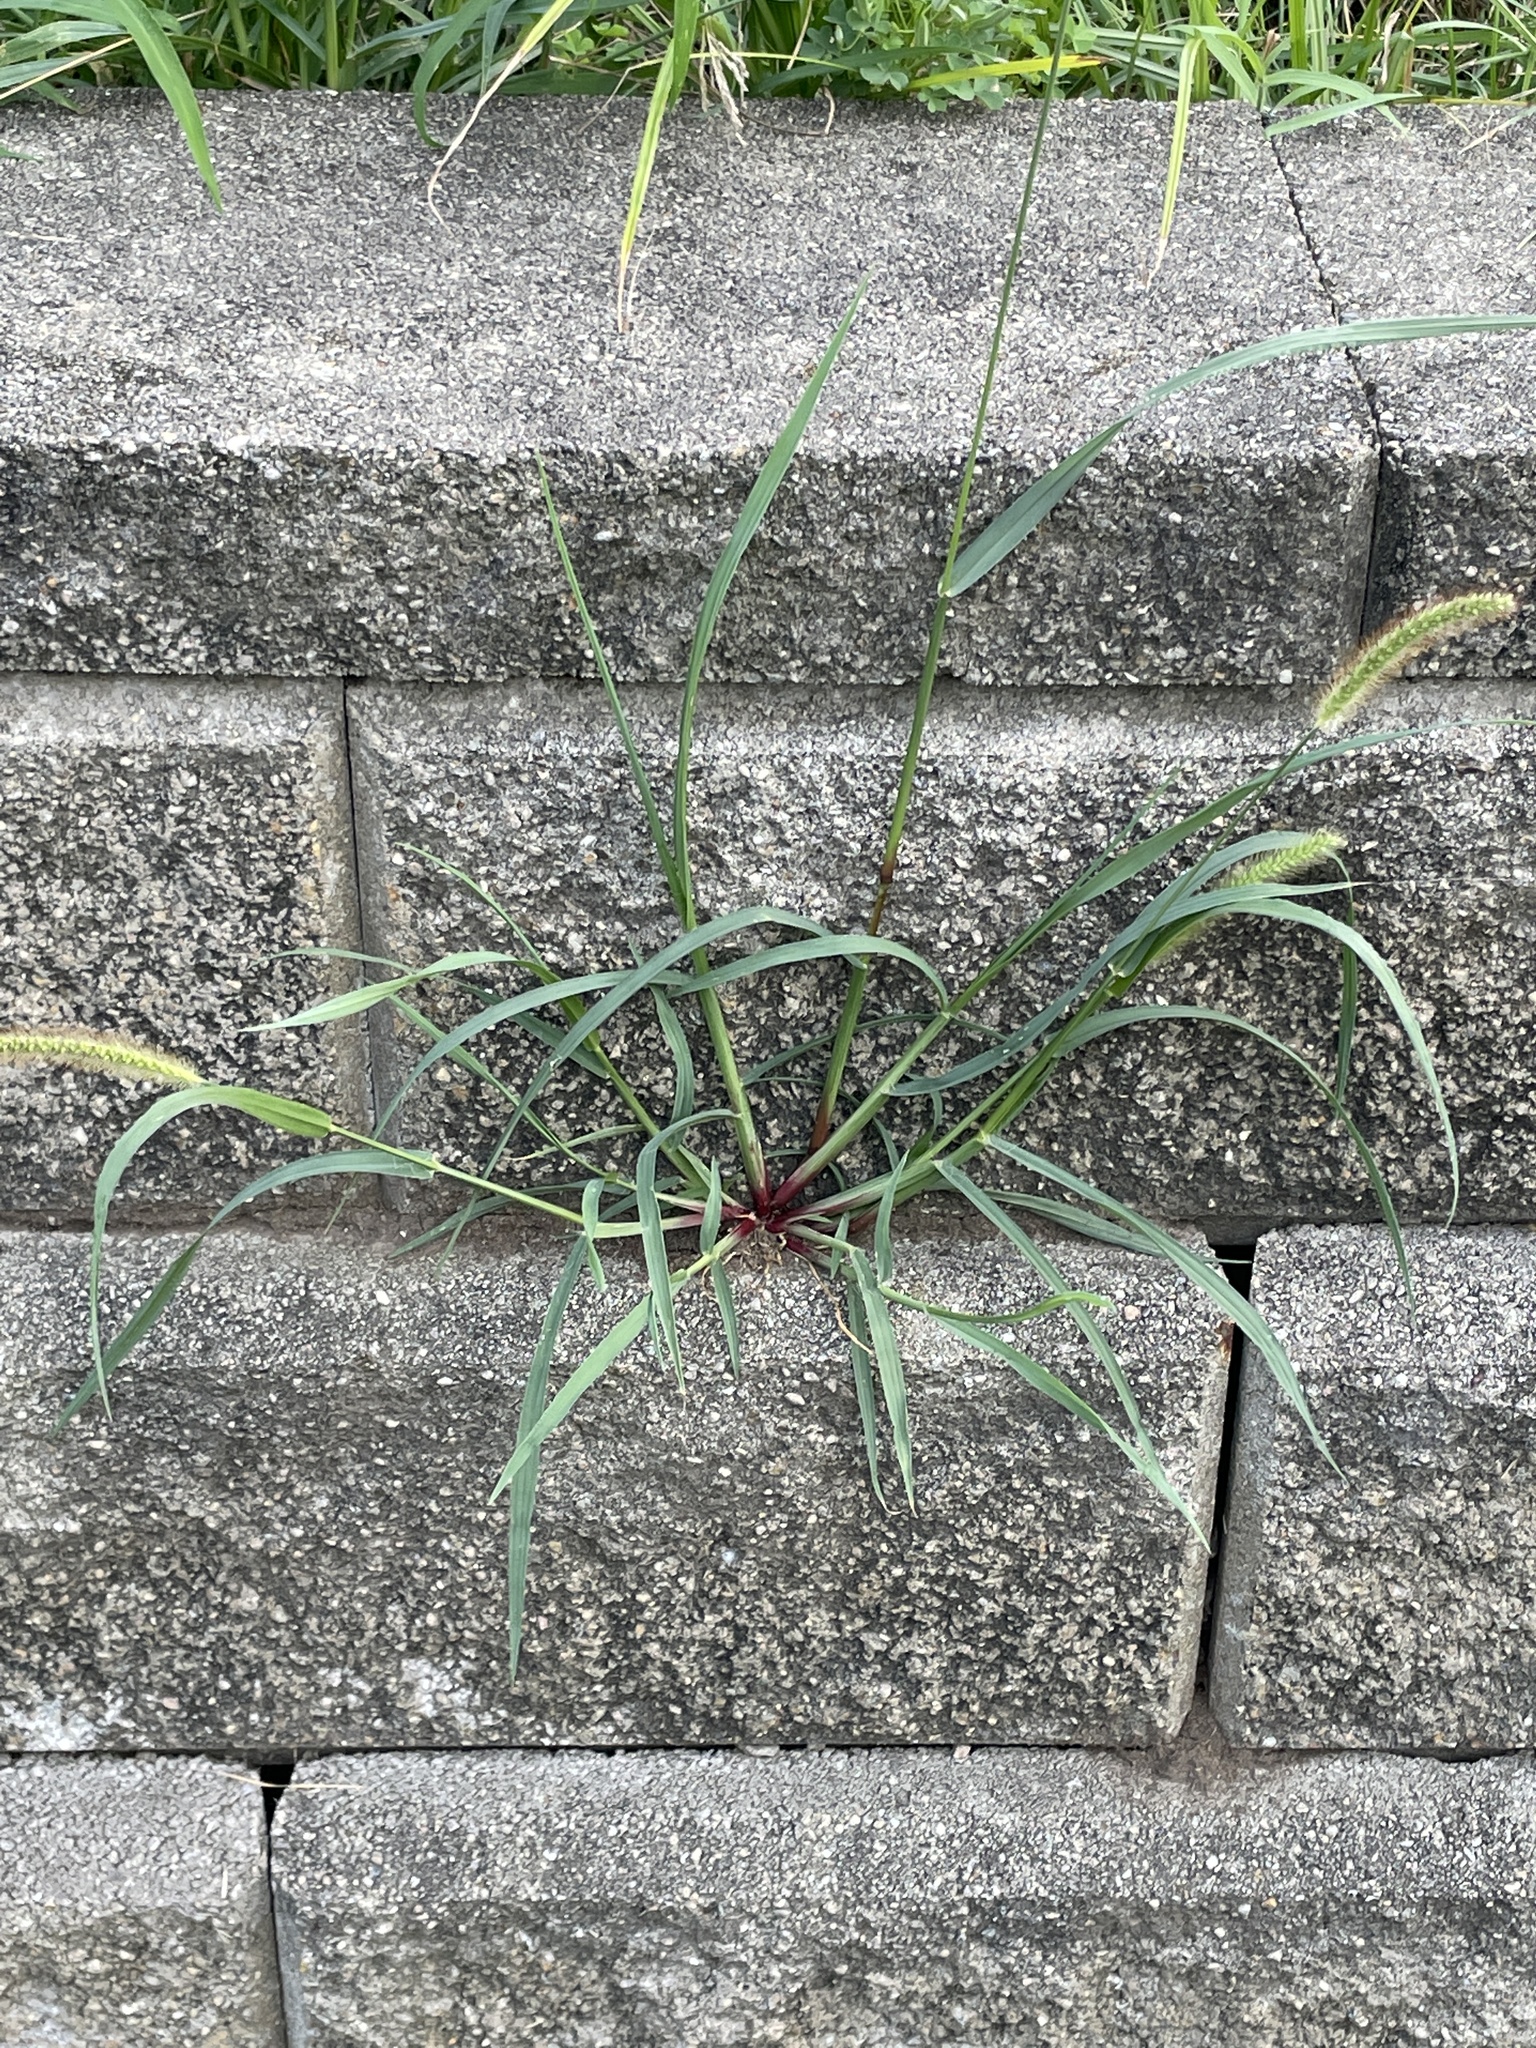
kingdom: Plantae
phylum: Tracheophyta
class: Liliopsida
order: Poales
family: Poaceae
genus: Setaria
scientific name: Setaria pumila
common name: Yellow bristle-grass
